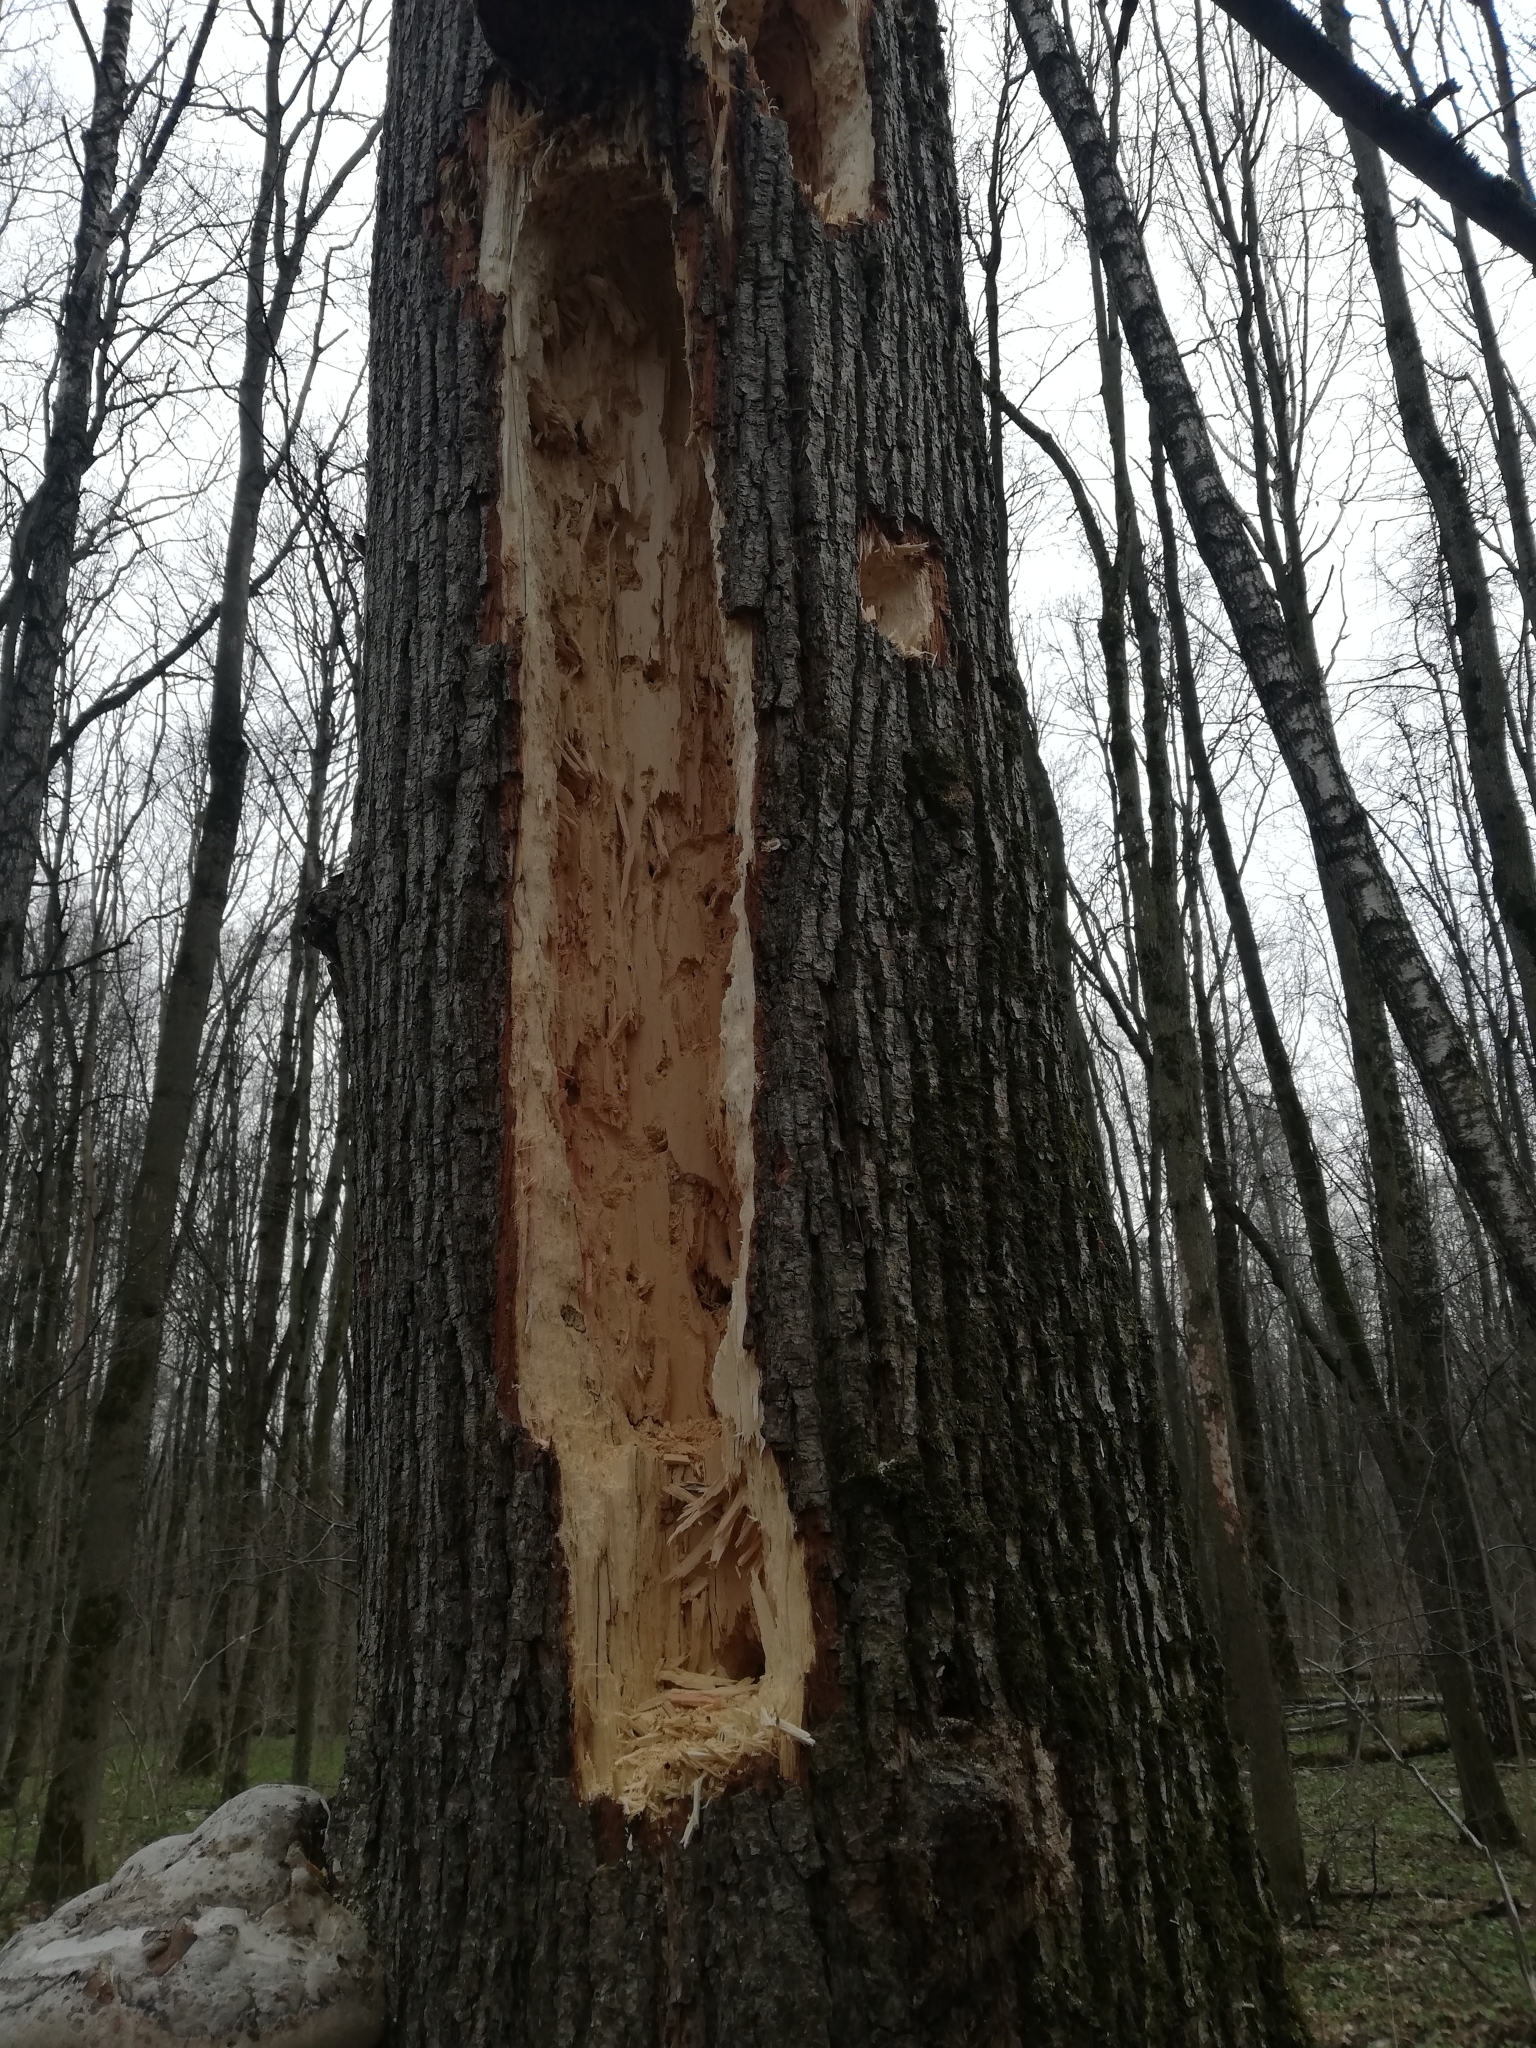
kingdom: Animalia
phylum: Chordata
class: Aves
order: Piciformes
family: Picidae
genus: Dryocopus
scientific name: Dryocopus martius
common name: Black woodpecker
